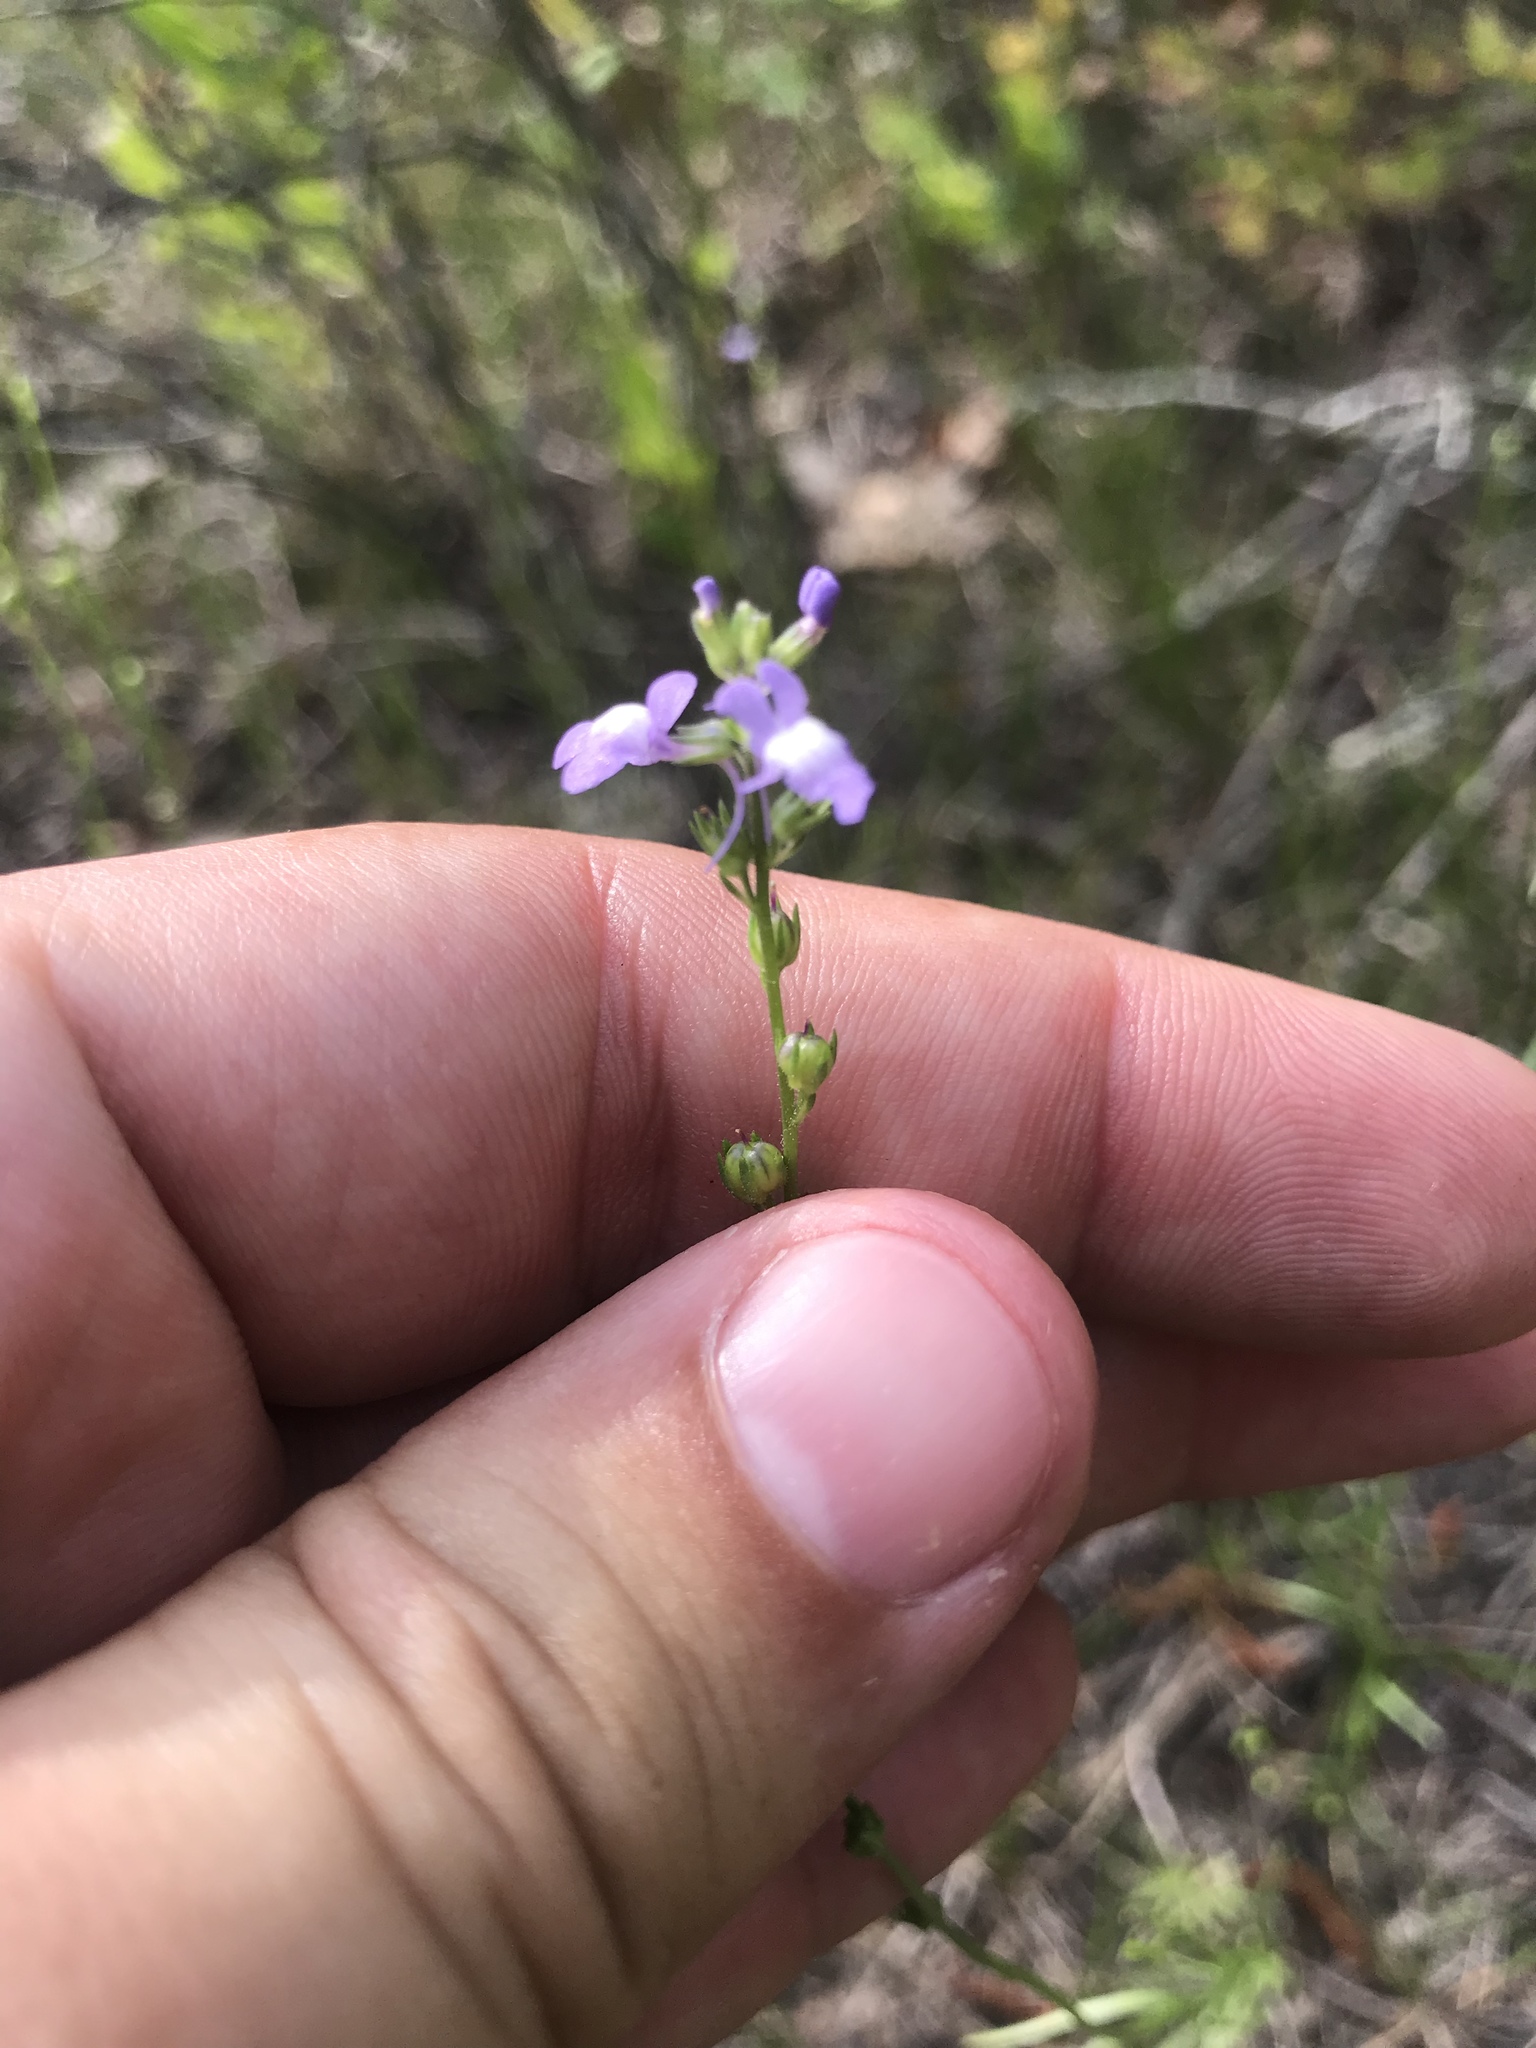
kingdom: Plantae
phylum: Tracheophyta
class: Magnoliopsida
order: Lamiales
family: Plantaginaceae
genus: Nuttallanthus
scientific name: Nuttallanthus canadensis
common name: Blue toadflax
